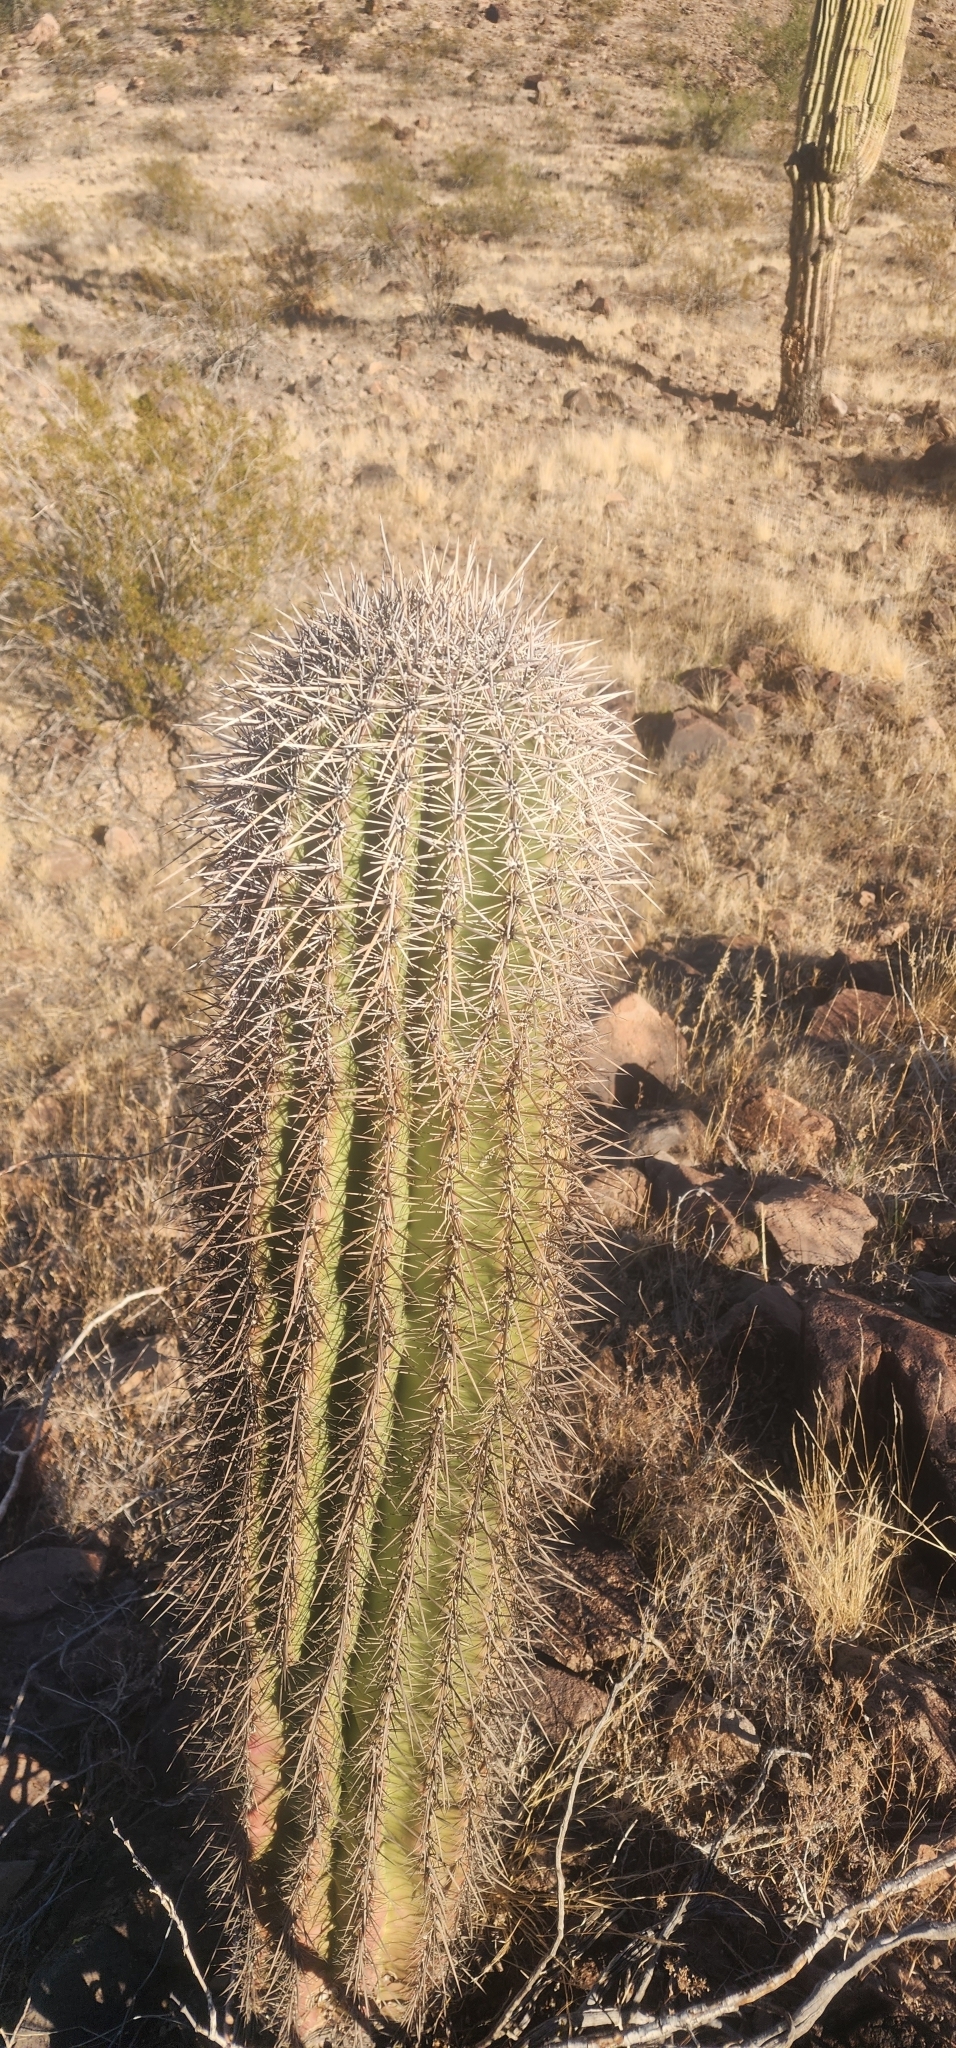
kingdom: Plantae
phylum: Tracheophyta
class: Magnoliopsida
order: Caryophyllales
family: Cactaceae
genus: Carnegiea
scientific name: Carnegiea gigantea
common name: Saguaro
